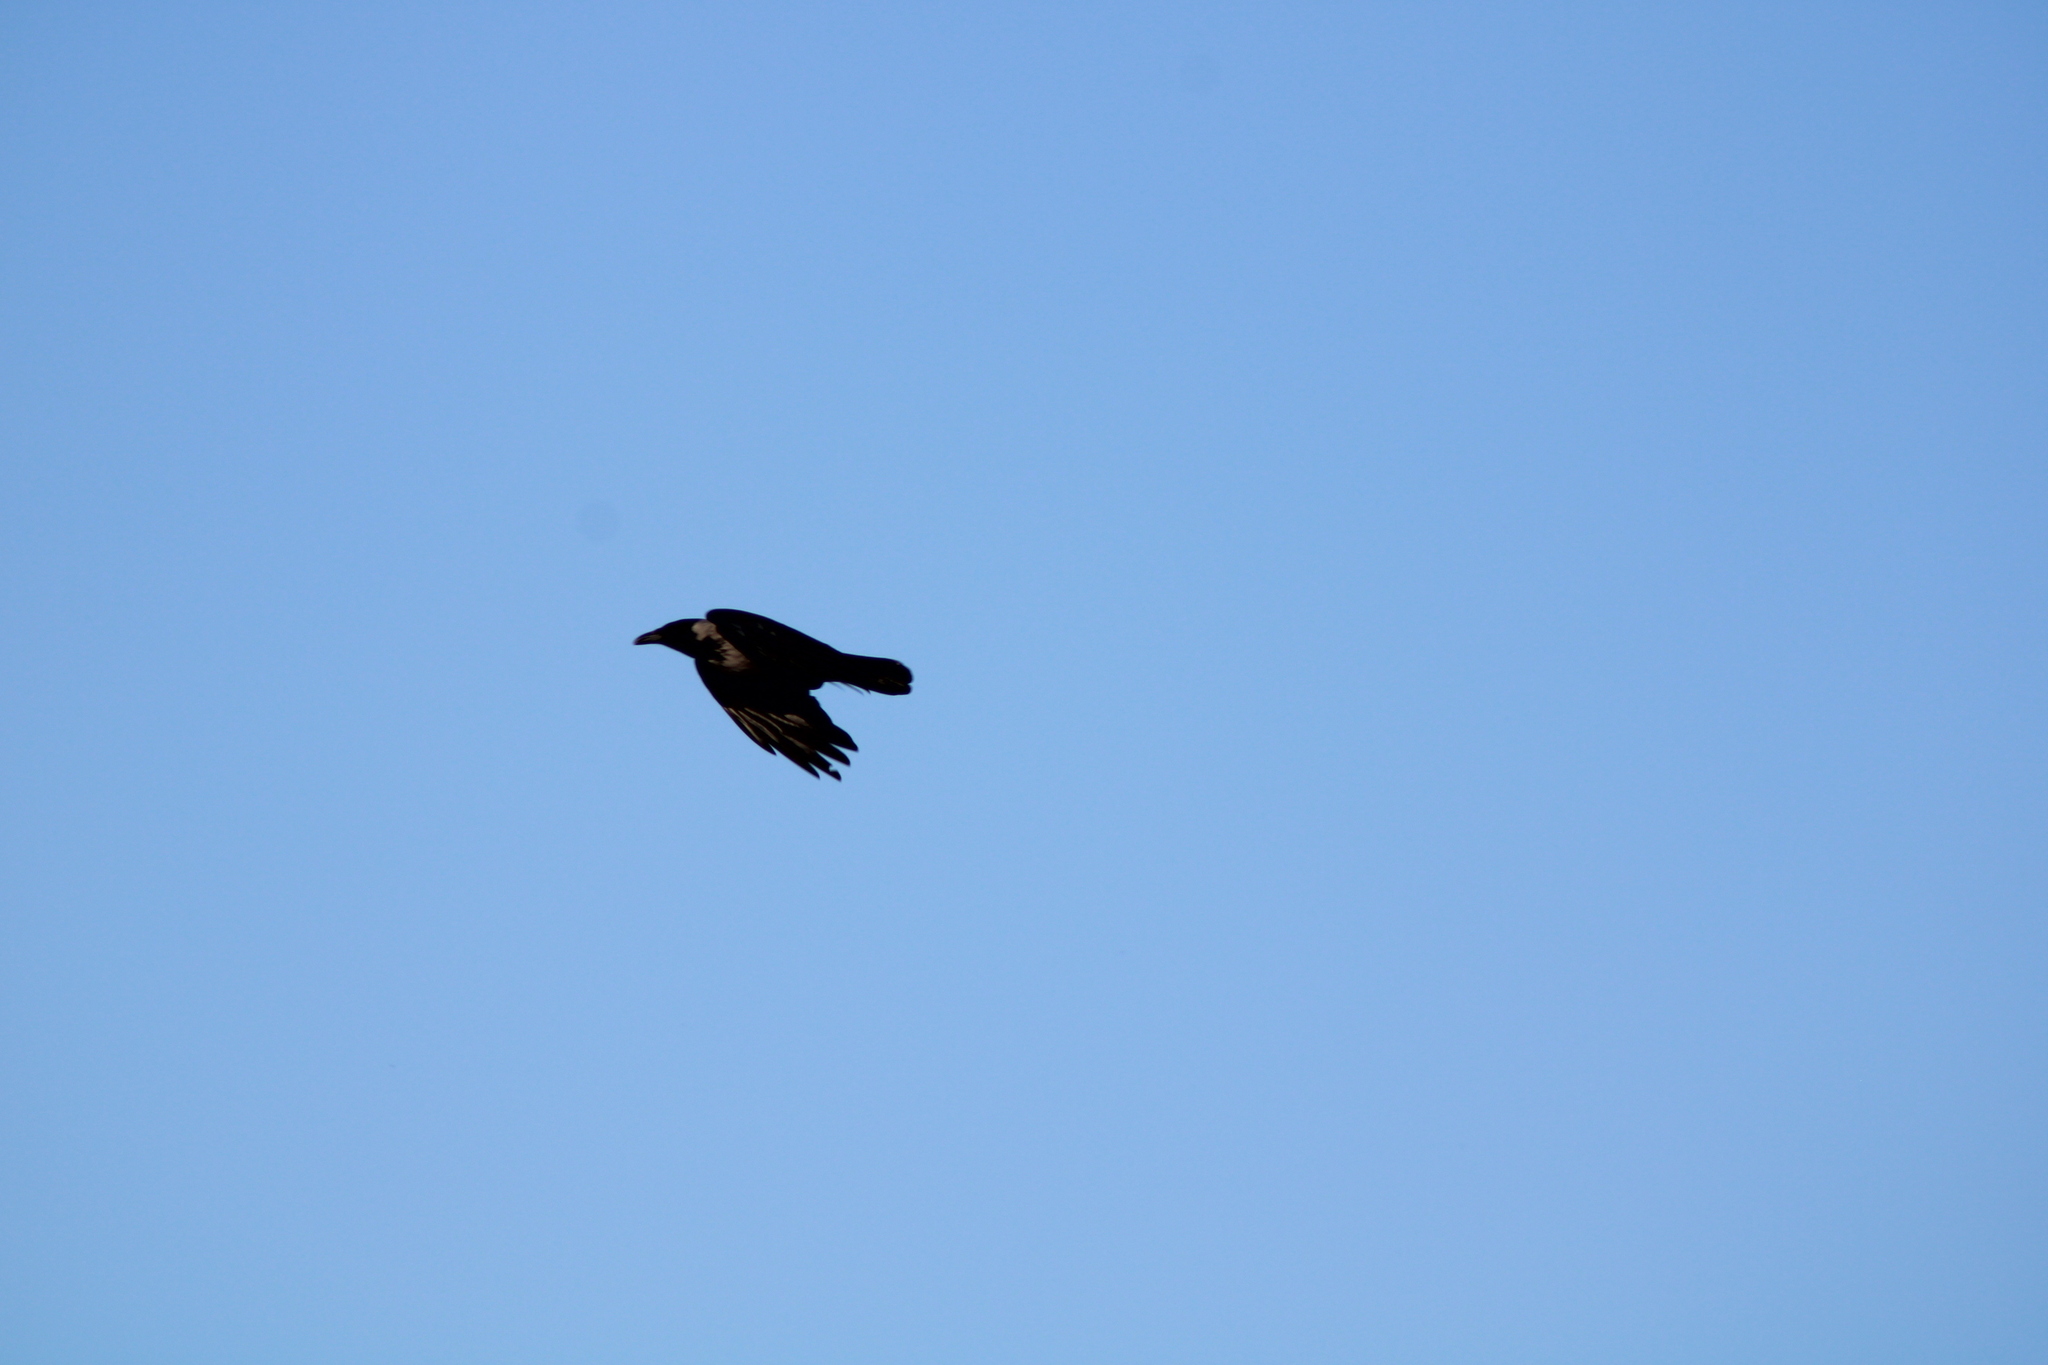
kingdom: Animalia
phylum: Chordata
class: Aves
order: Passeriformes
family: Corvidae
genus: Corvus
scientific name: Corvus cornix
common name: Hooded crow
